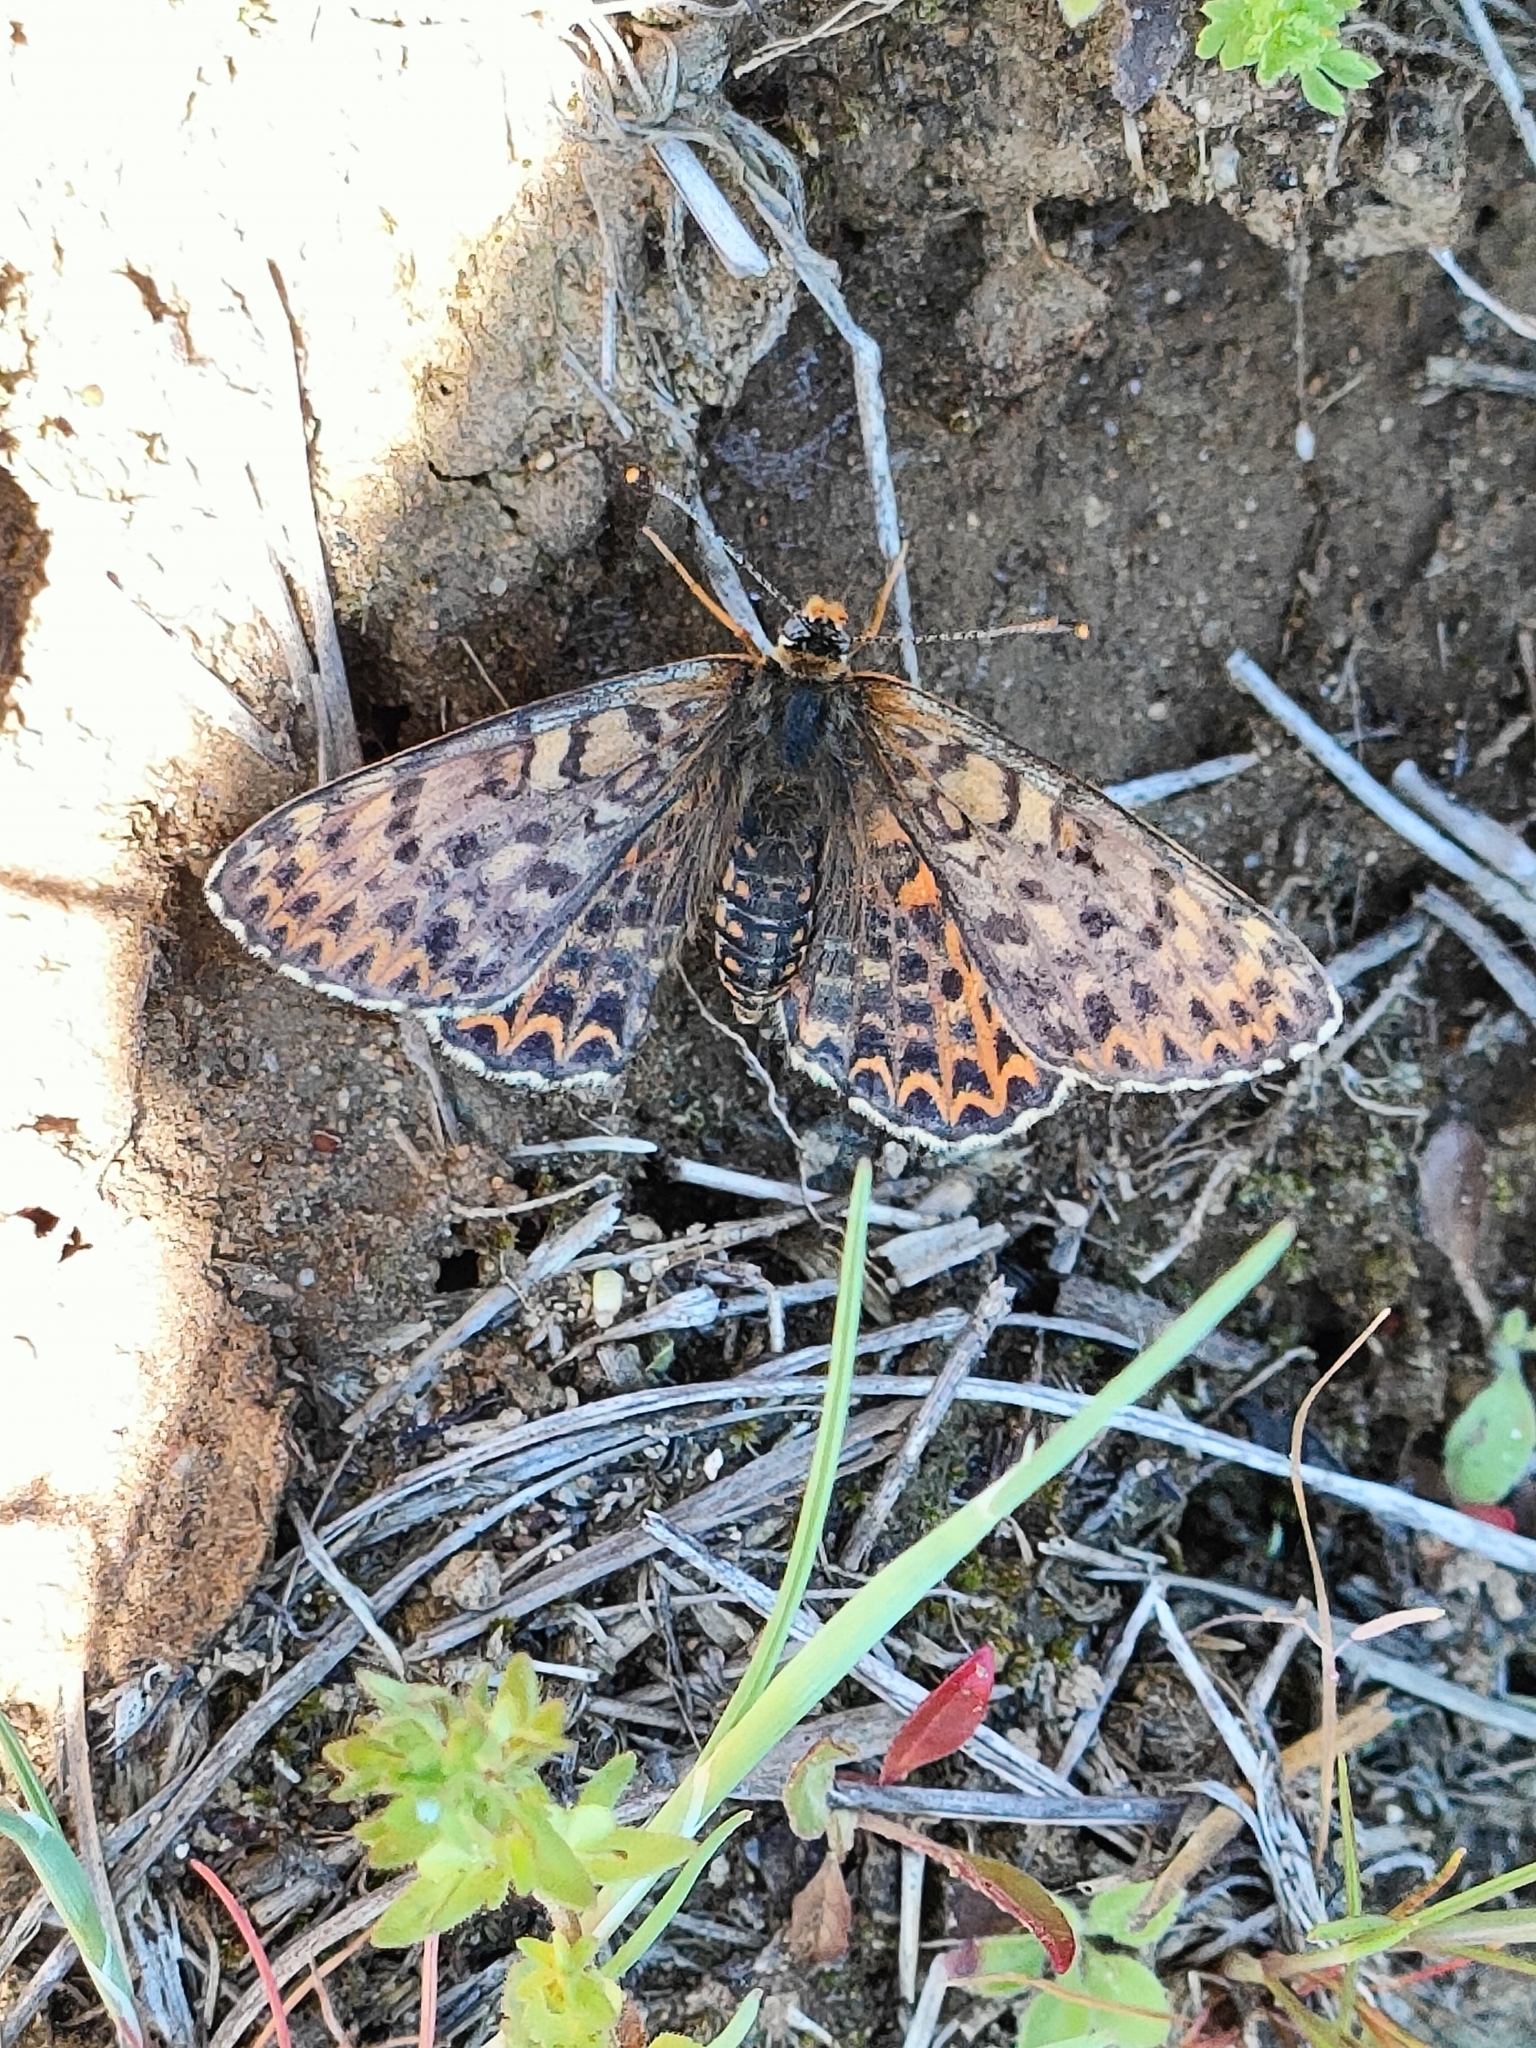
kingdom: Animalia
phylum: Arthropoda
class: Insecta
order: Lepidoptera
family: Nymphalidae
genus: Melitaea
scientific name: Melitaea didyma
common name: Spotted fritillary
